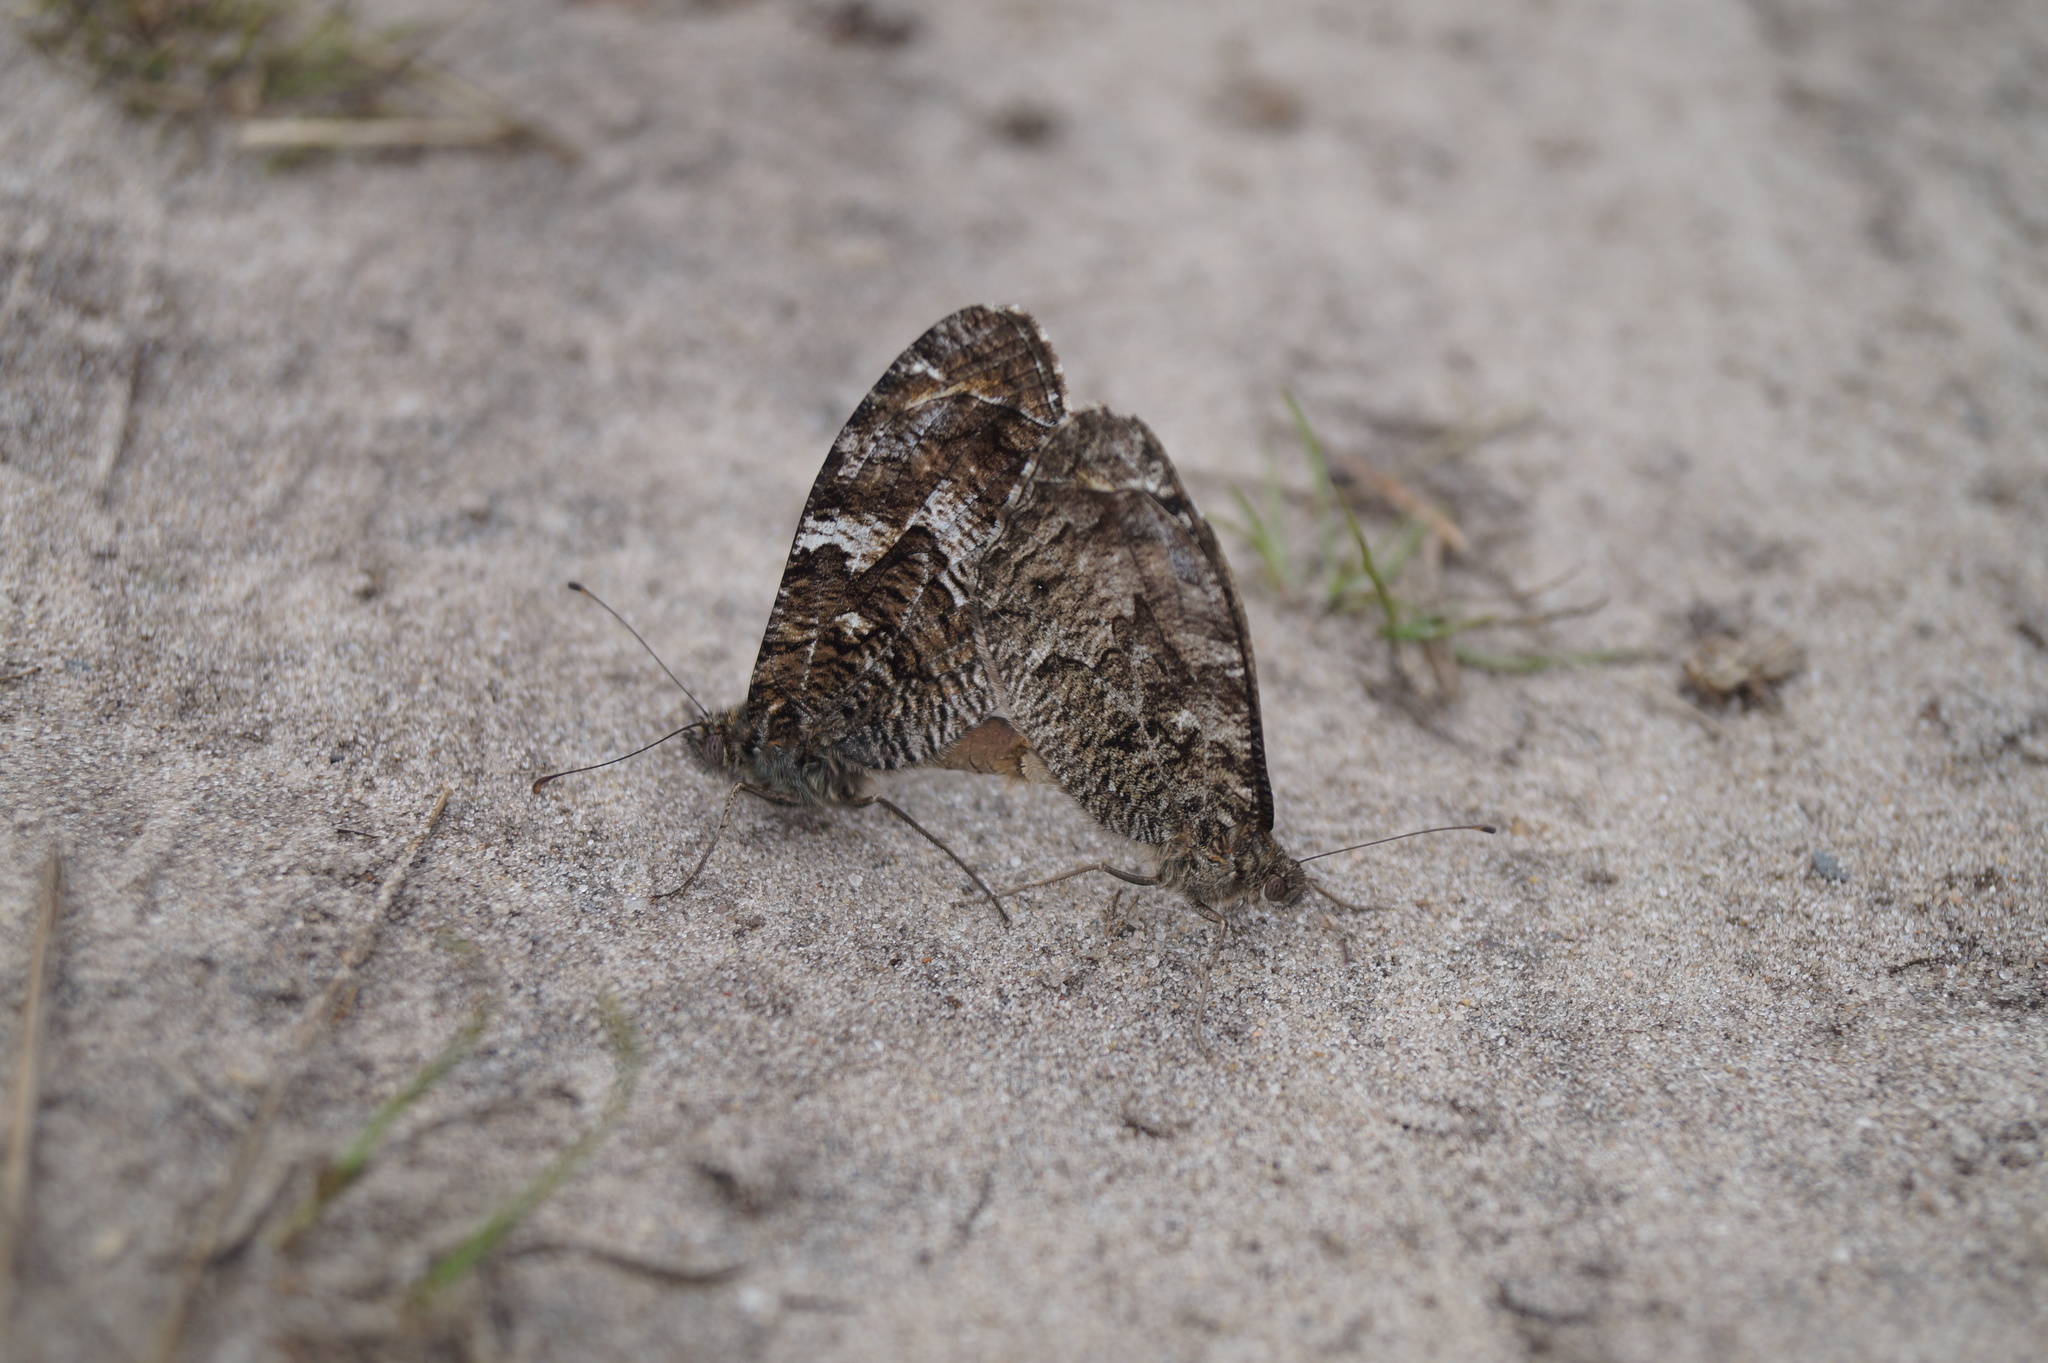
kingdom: Animalia
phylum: Arthropoda
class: Insecta
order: Lepidoptera
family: Nymphalidae
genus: Hipparchia
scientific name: Hipparchia semele
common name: Grayling
